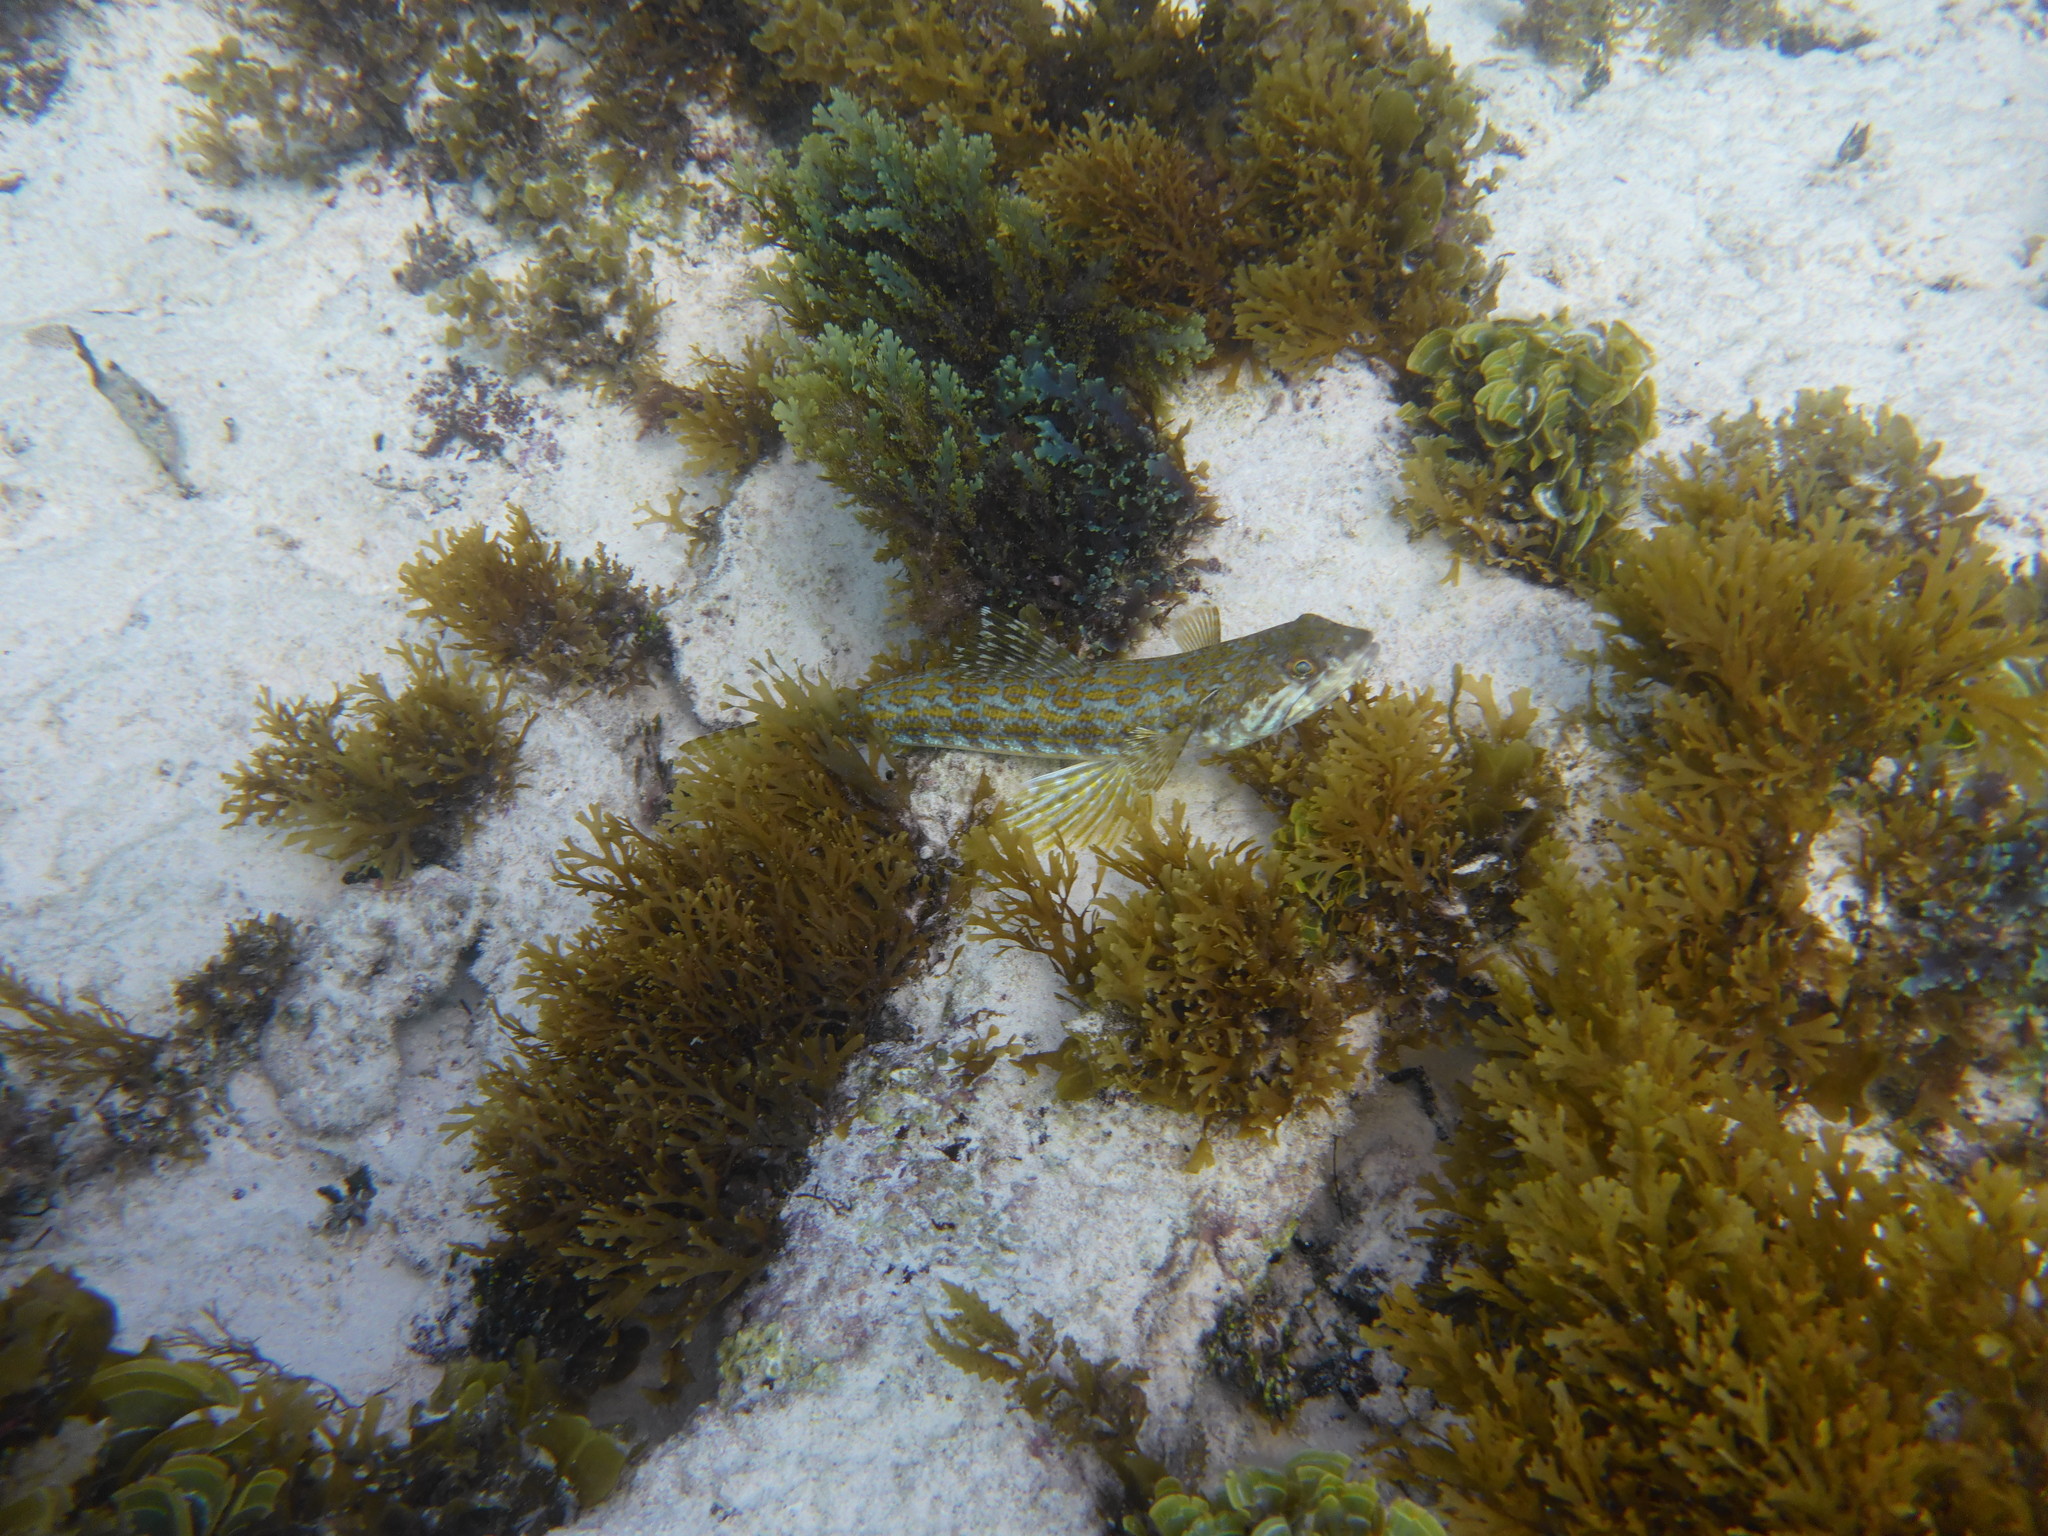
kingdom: Animalia
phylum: Chordata
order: Aulopiformes
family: Synodontidae
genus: Synodus
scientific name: Synodus intermedius
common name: Sand diver
